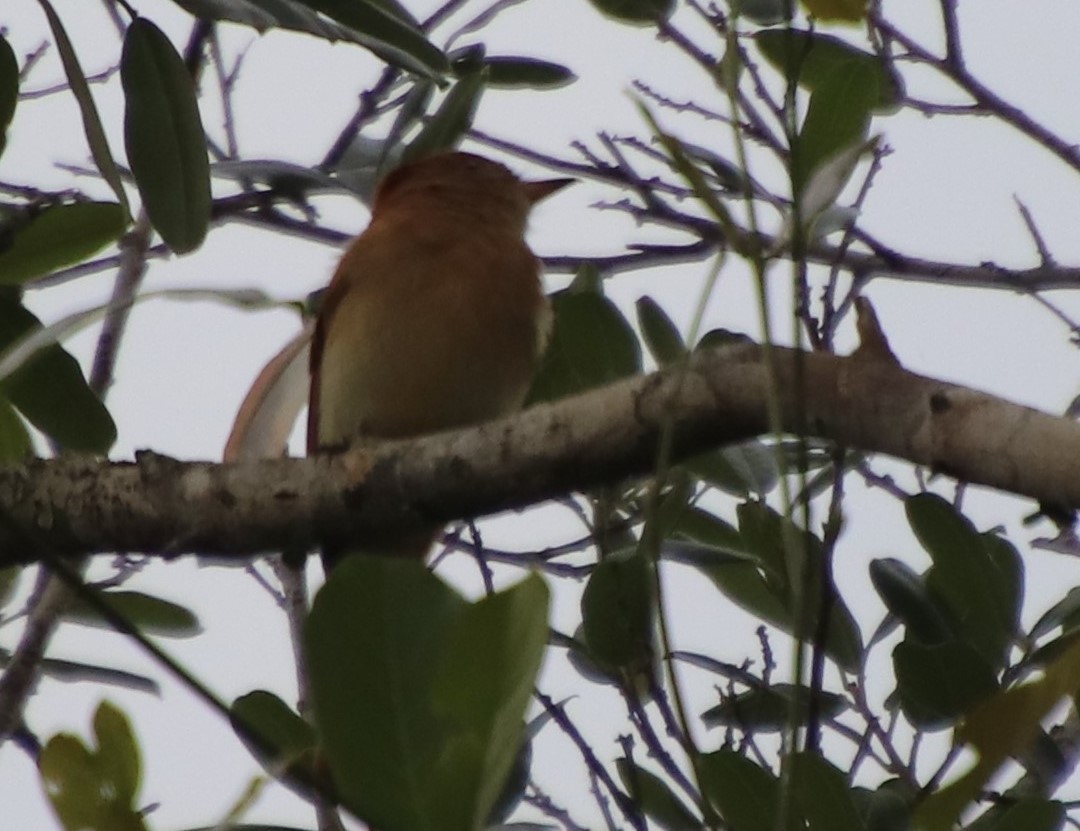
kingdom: Animalia
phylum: Chordata
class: Aves
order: Passeriformes
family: Tyrannidae
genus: Casiornis
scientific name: Casiornis rufus
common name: Rufous casiornis
